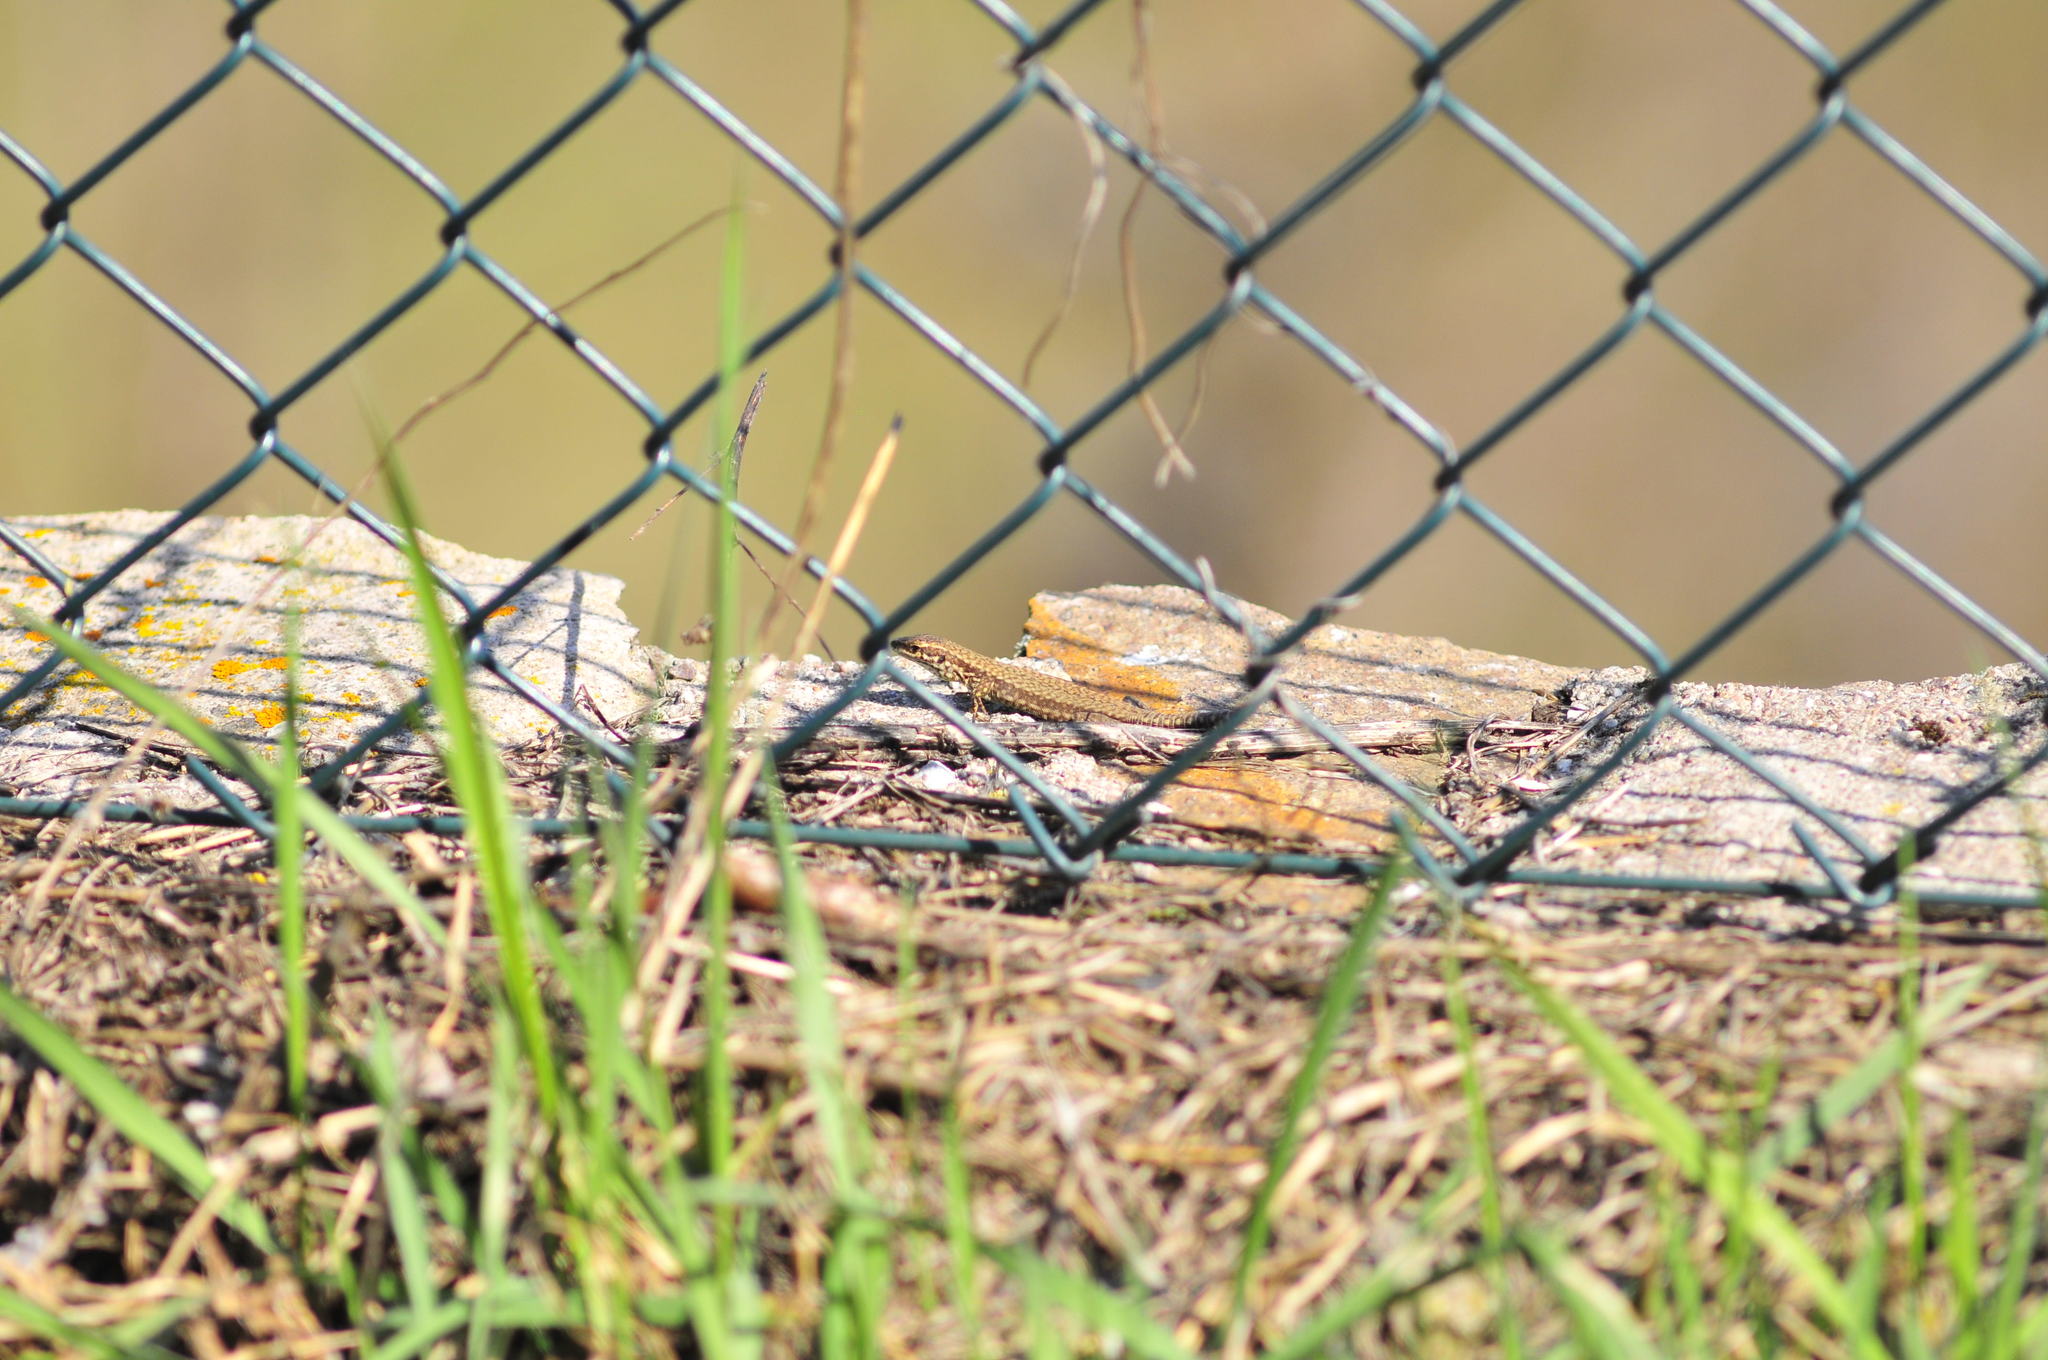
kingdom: Animalia
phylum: Chordata
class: Squamata
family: Lacertidae
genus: Podarcis
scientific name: Podarcis muralis
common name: Common wall lizard
